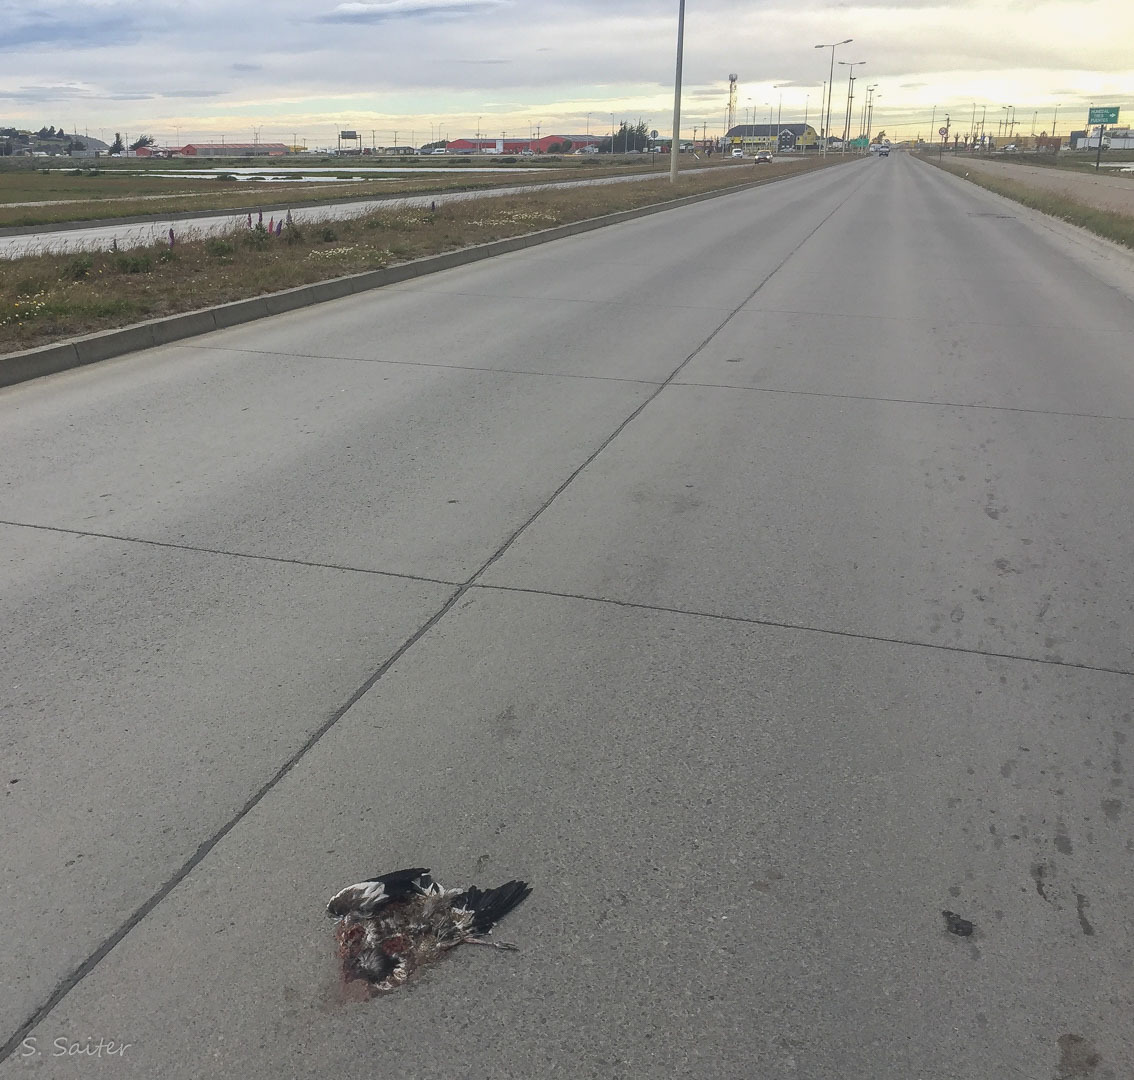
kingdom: Animalia
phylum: Chordata
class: Aves
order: Charadriiformes
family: Charadriidae
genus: Vanellus
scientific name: Vanellus chilensis
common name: Southern lapwing
